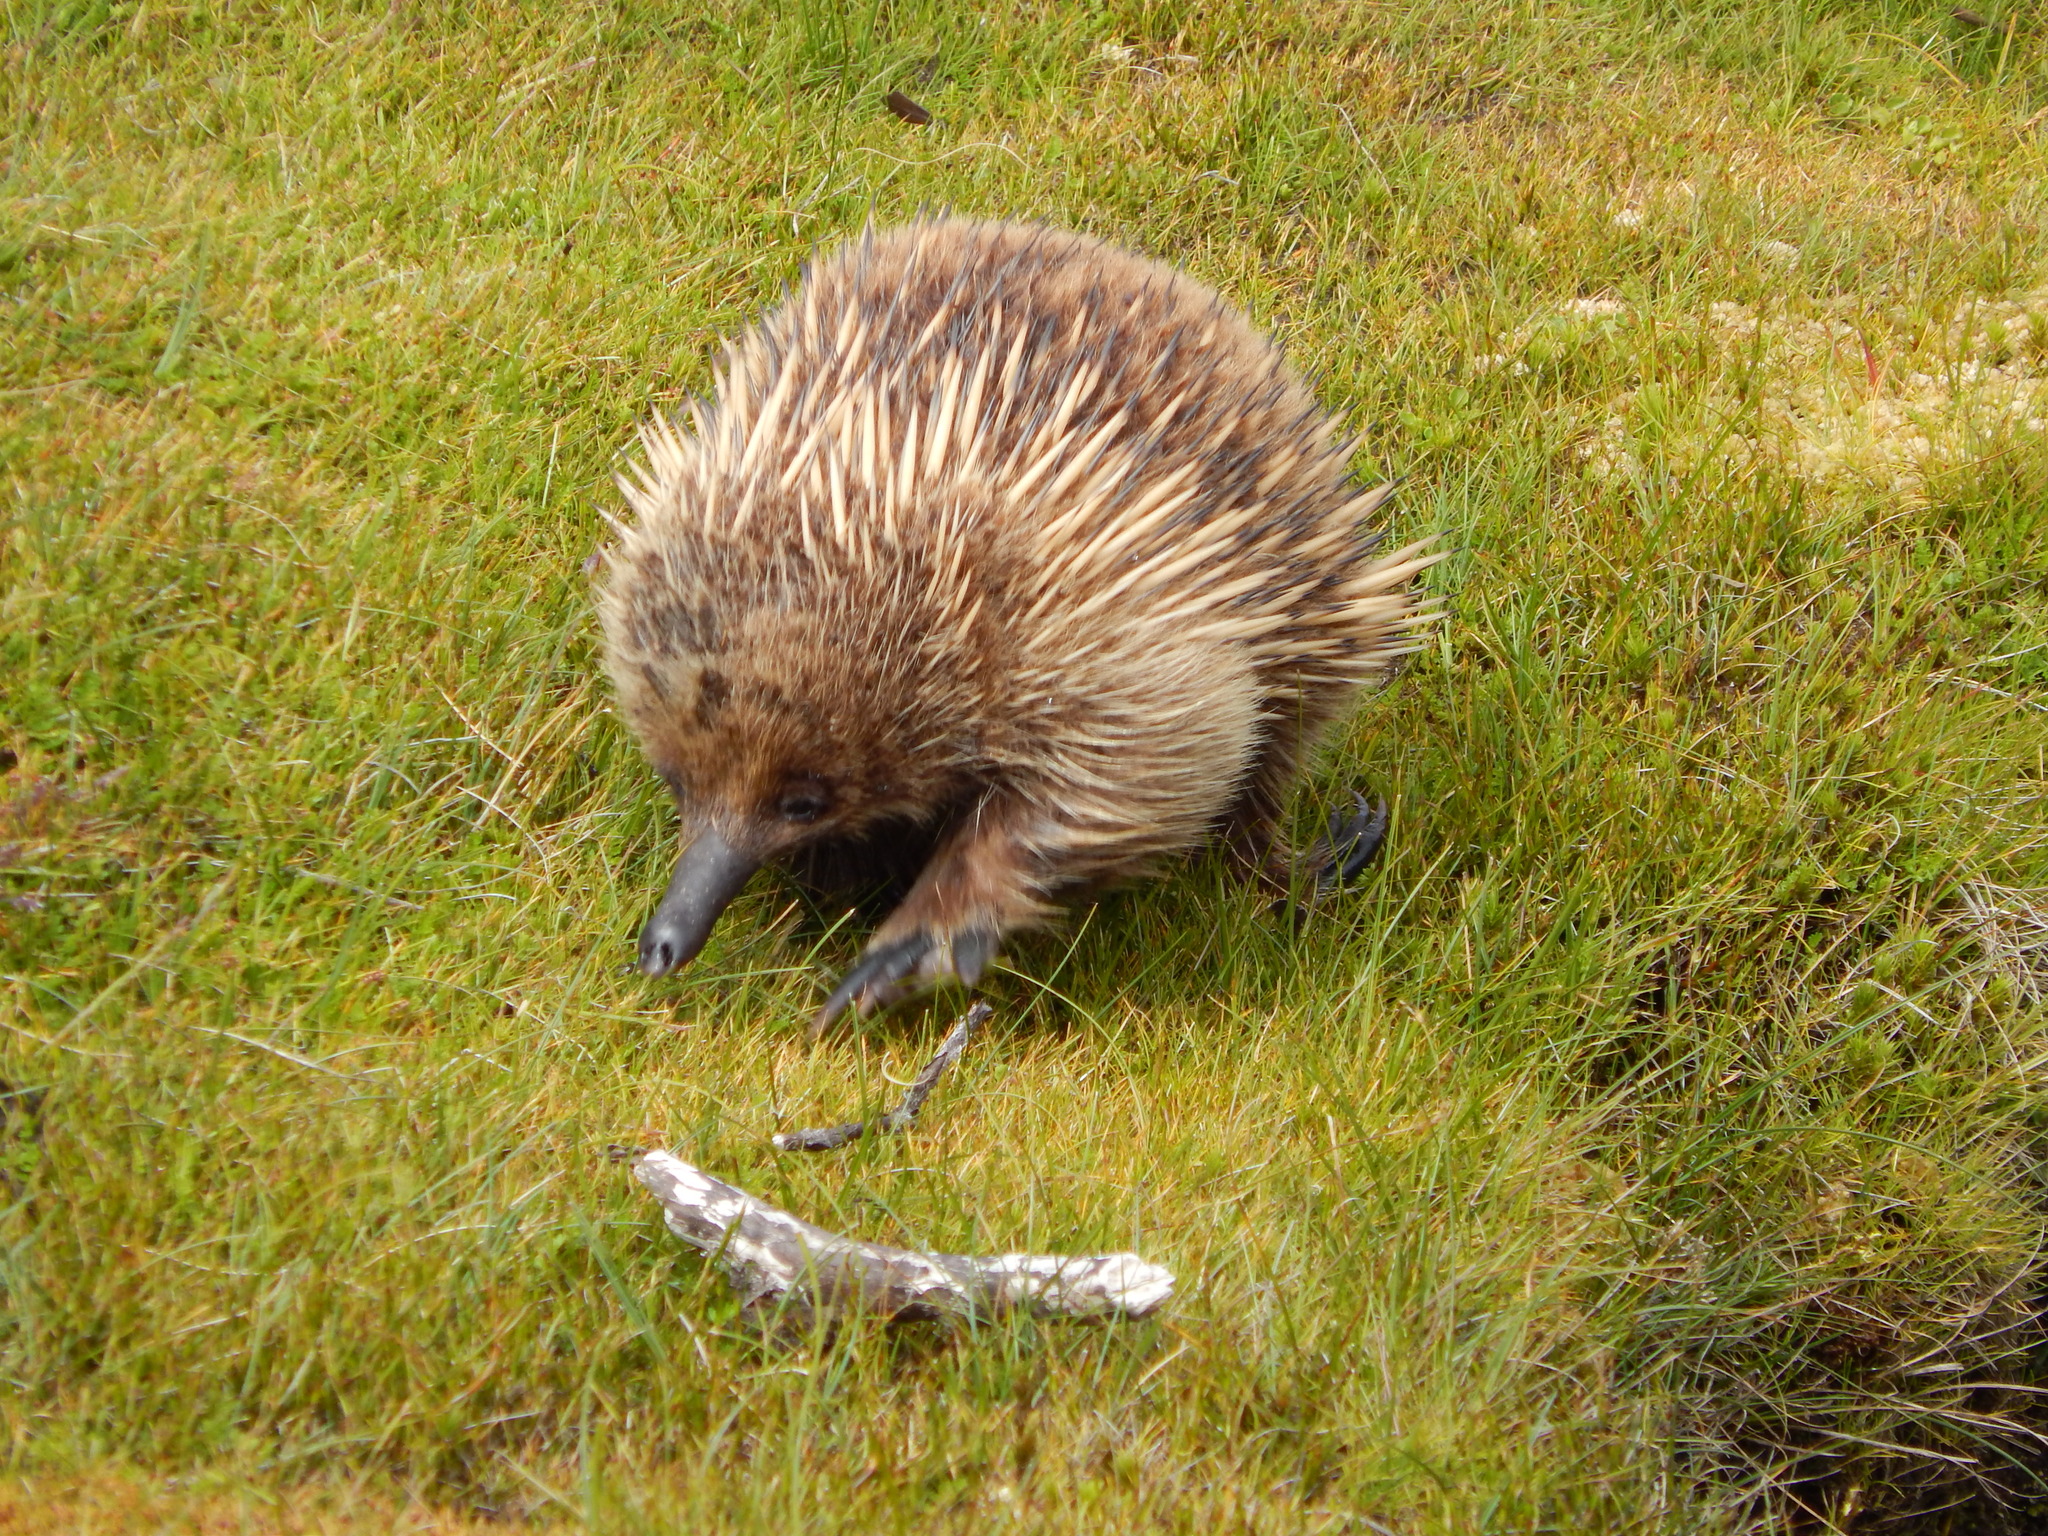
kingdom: Animalia
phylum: Chordata
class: Mammalia
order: Monotremata
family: Tachyglossidae
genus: Tachyglossus
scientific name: Tachyglossus aculeatus
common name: Short-beaked echidna
